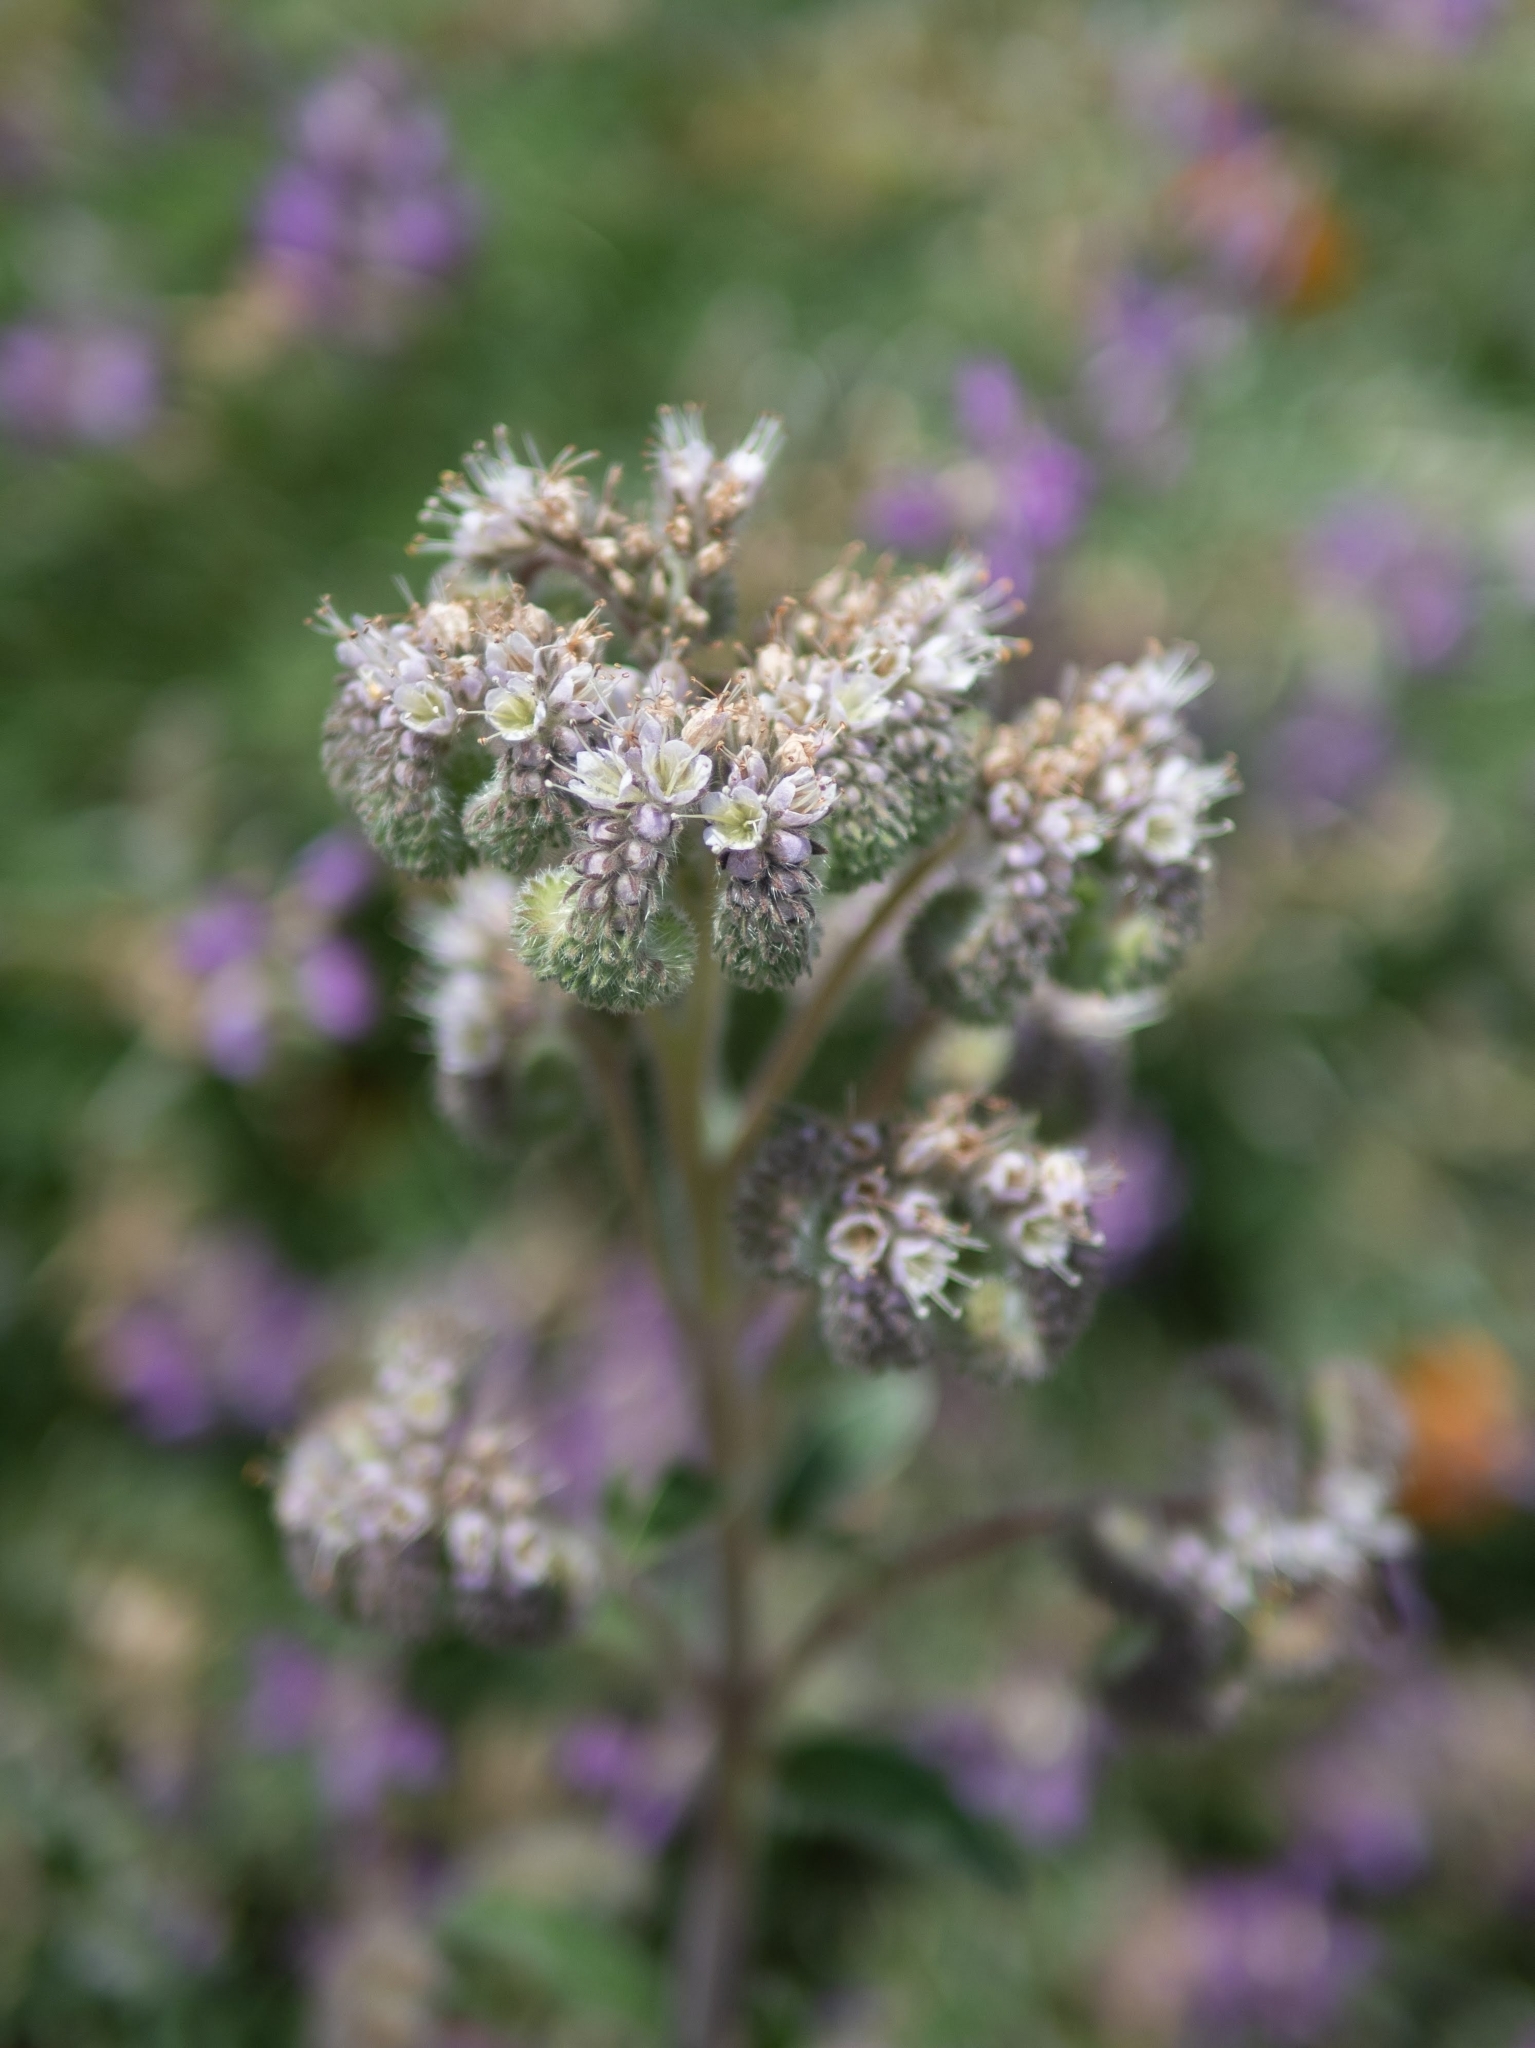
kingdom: Plantae
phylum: Tracheophyta
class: Magnoliopsida
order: Boraginales
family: Hydrophyllaceae
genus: Phacelia
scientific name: Phacelia californica
